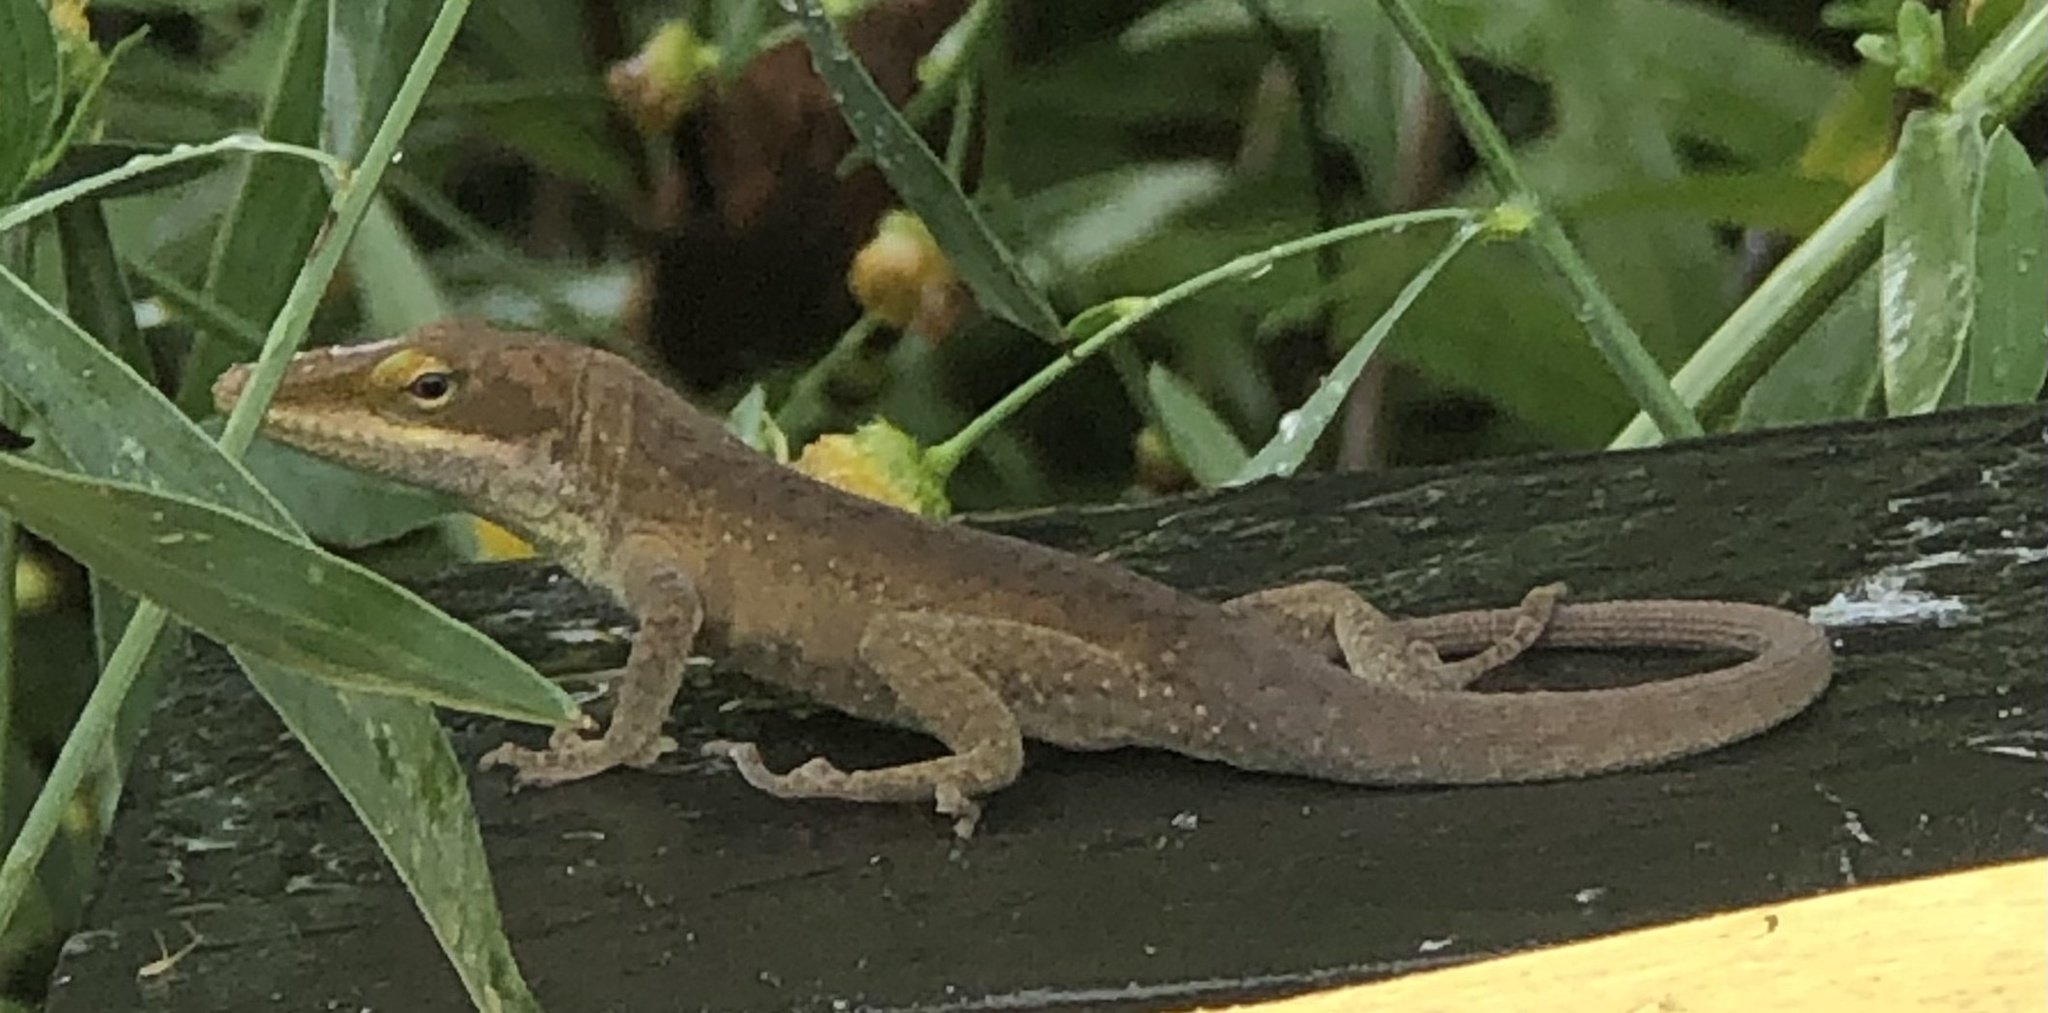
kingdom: Animalia
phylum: Chordata
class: Squamata
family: Dactyloidae
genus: Anolis
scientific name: Anolis carolinensis
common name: Green anole
